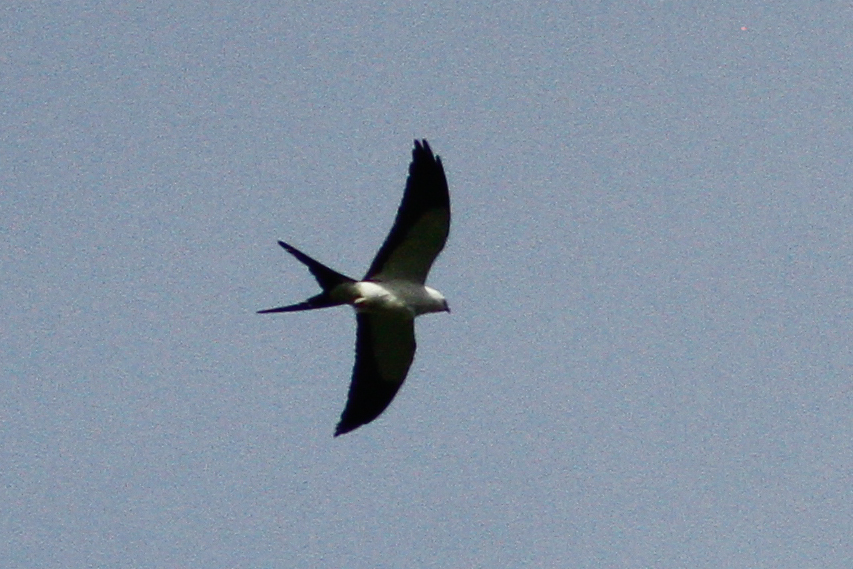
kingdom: Animalia
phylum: Chordata
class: Aves
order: Accipitriformes
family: Accipitridae
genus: Elanoides
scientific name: Elanoides forficatus
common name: Swallow-tailed kite
